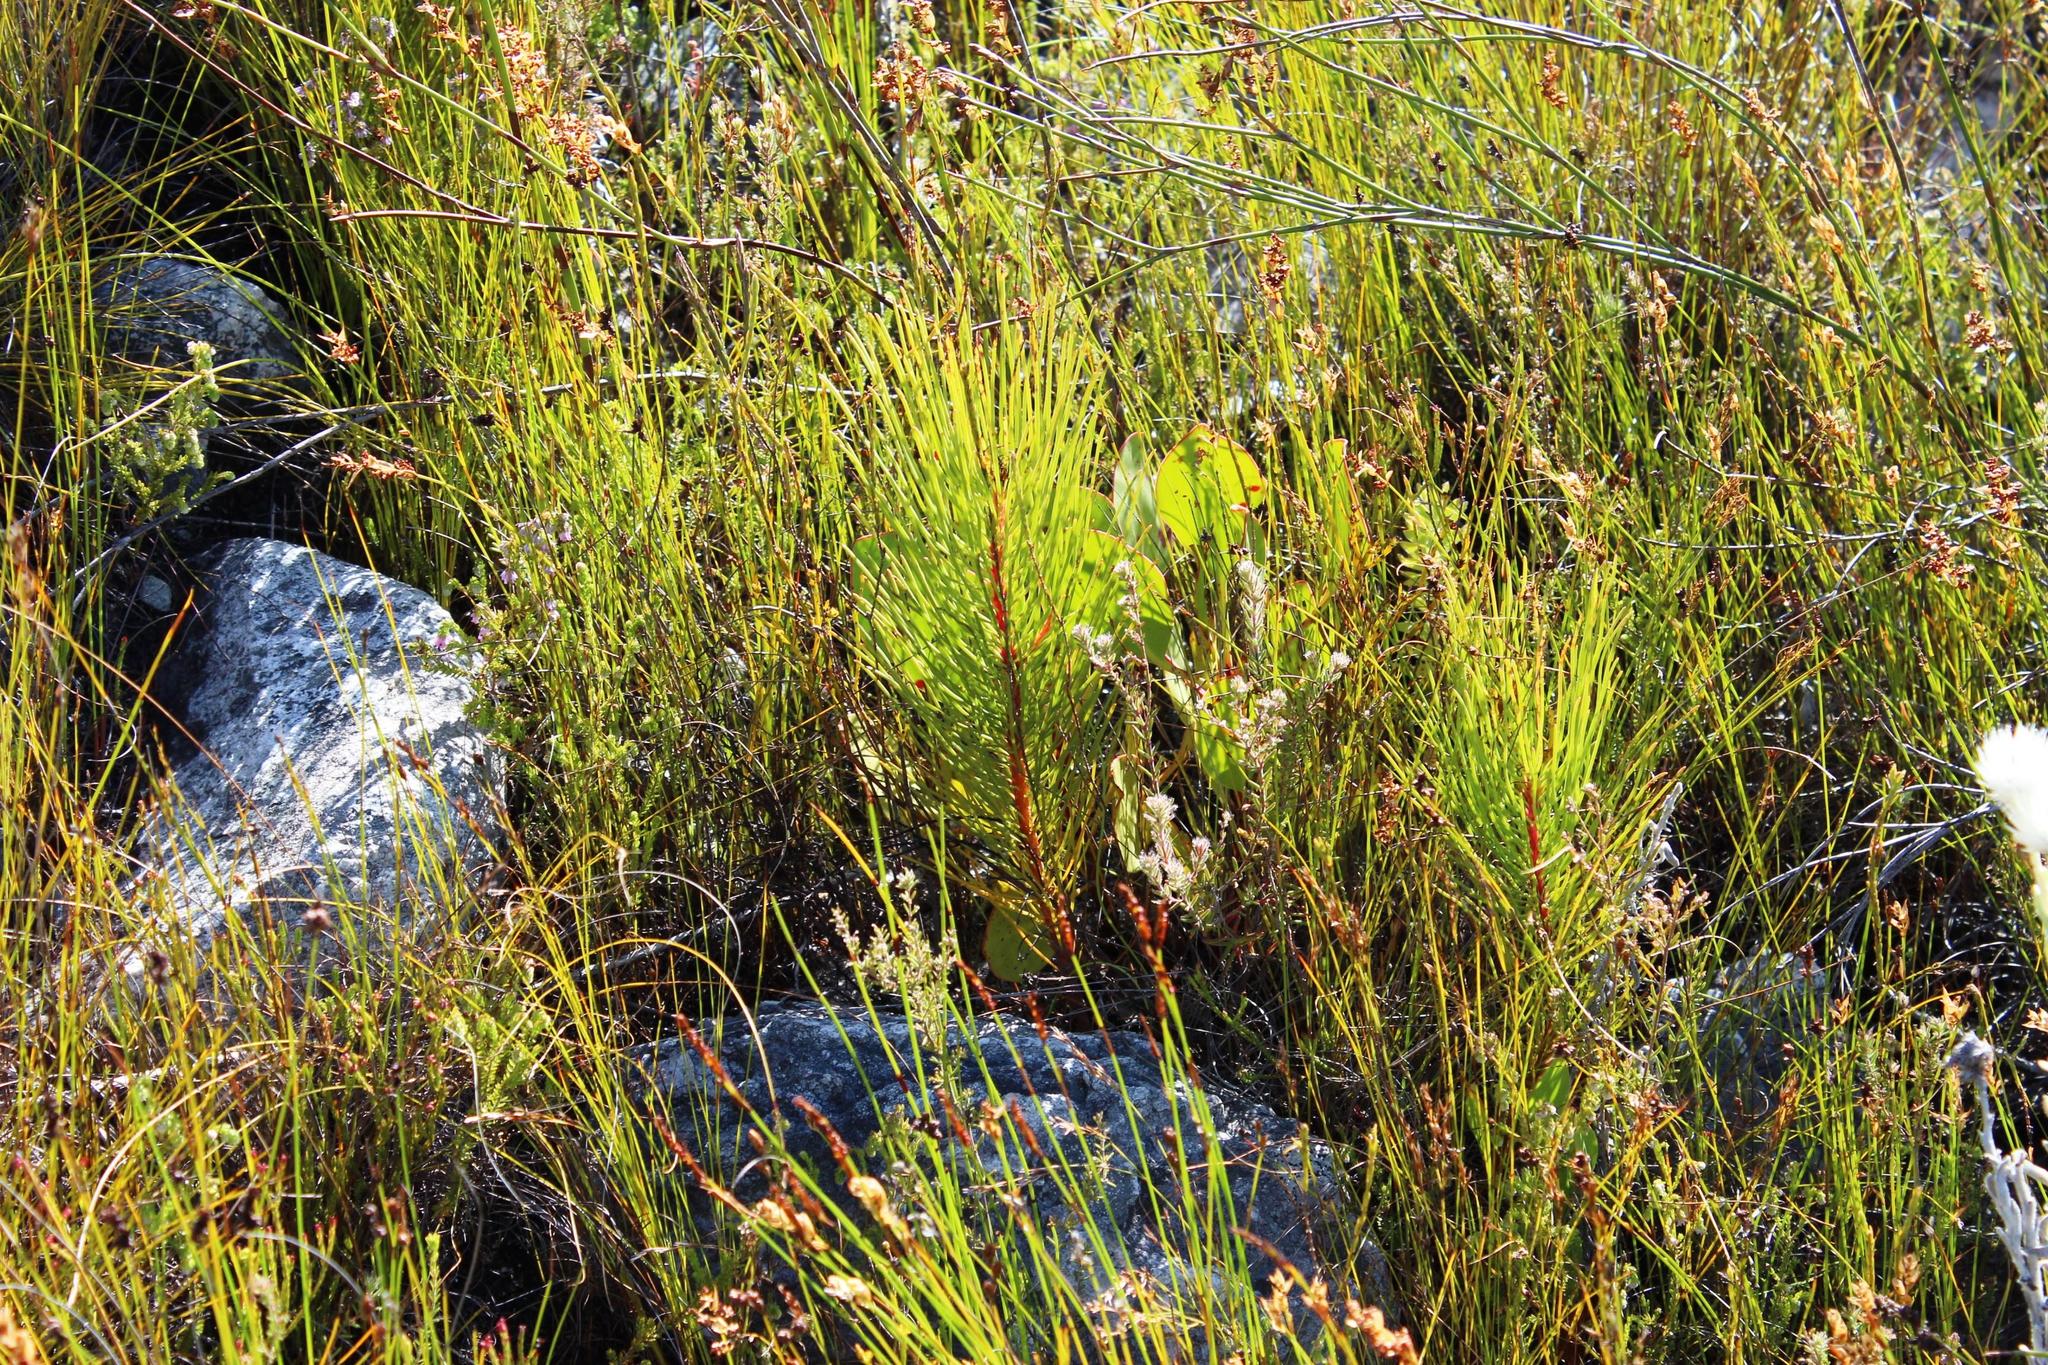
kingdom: Plantae
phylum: Tracheophyta
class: Magnoliopsida
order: Proteales
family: Proteaceae
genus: Aulax
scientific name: Aulax cancellata
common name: Channel-leaf featherbush
